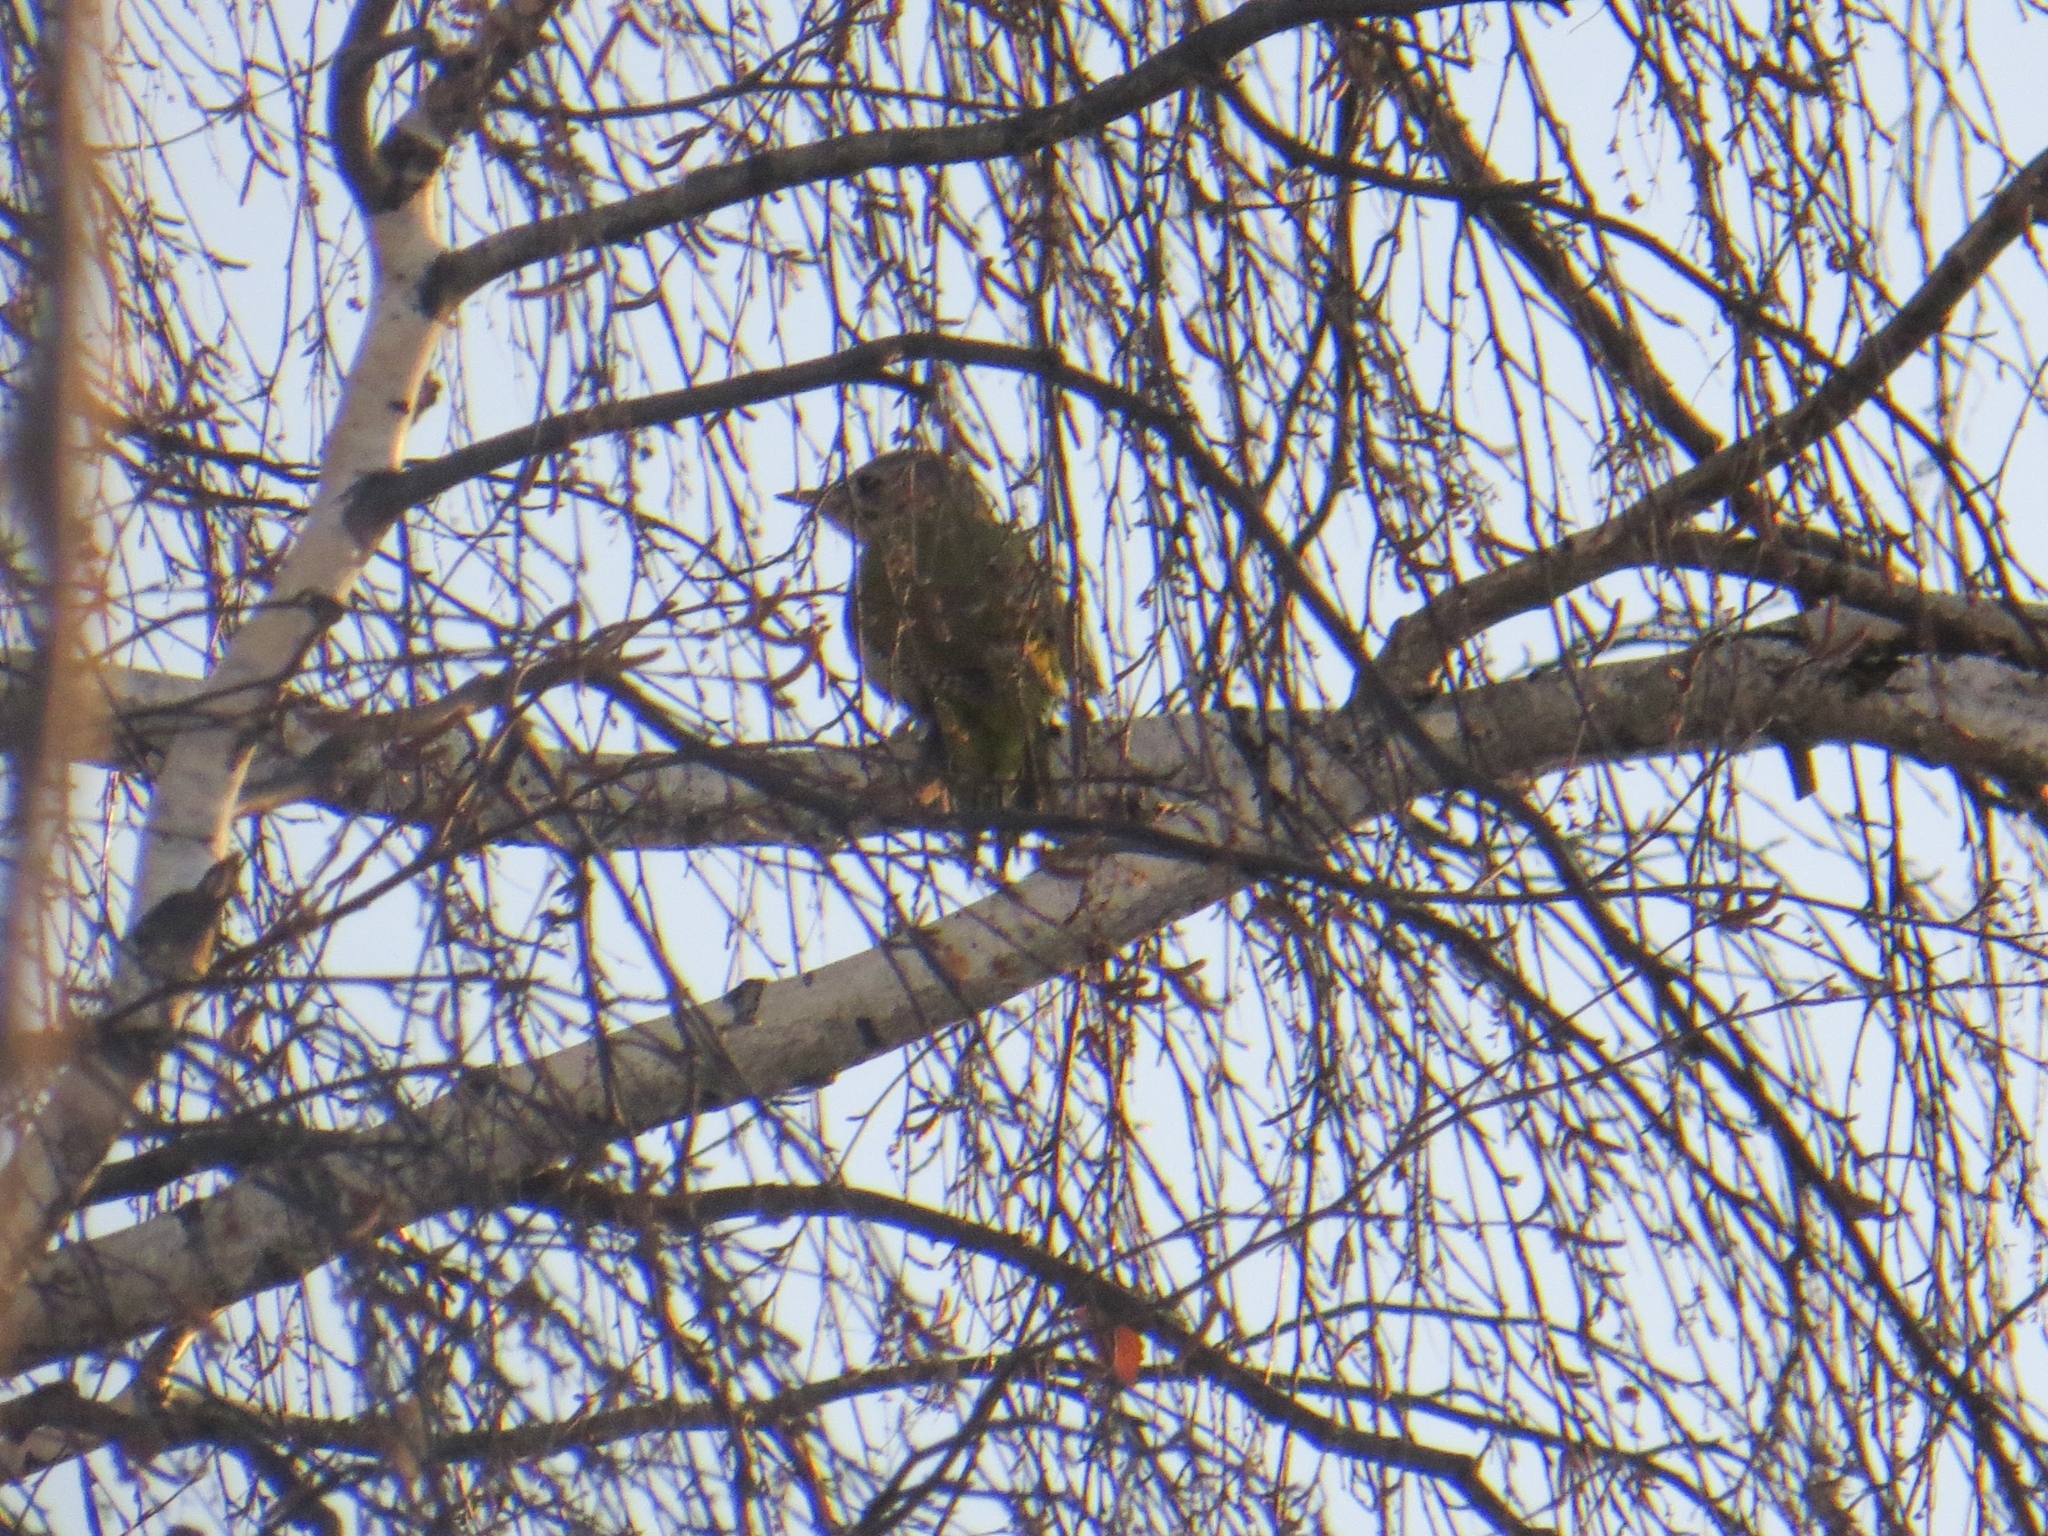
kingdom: Animalia
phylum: Chordata
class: Aves
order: Piciformes
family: Picidae
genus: Picus
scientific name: Picus canus
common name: Grey-headed woodpecker
